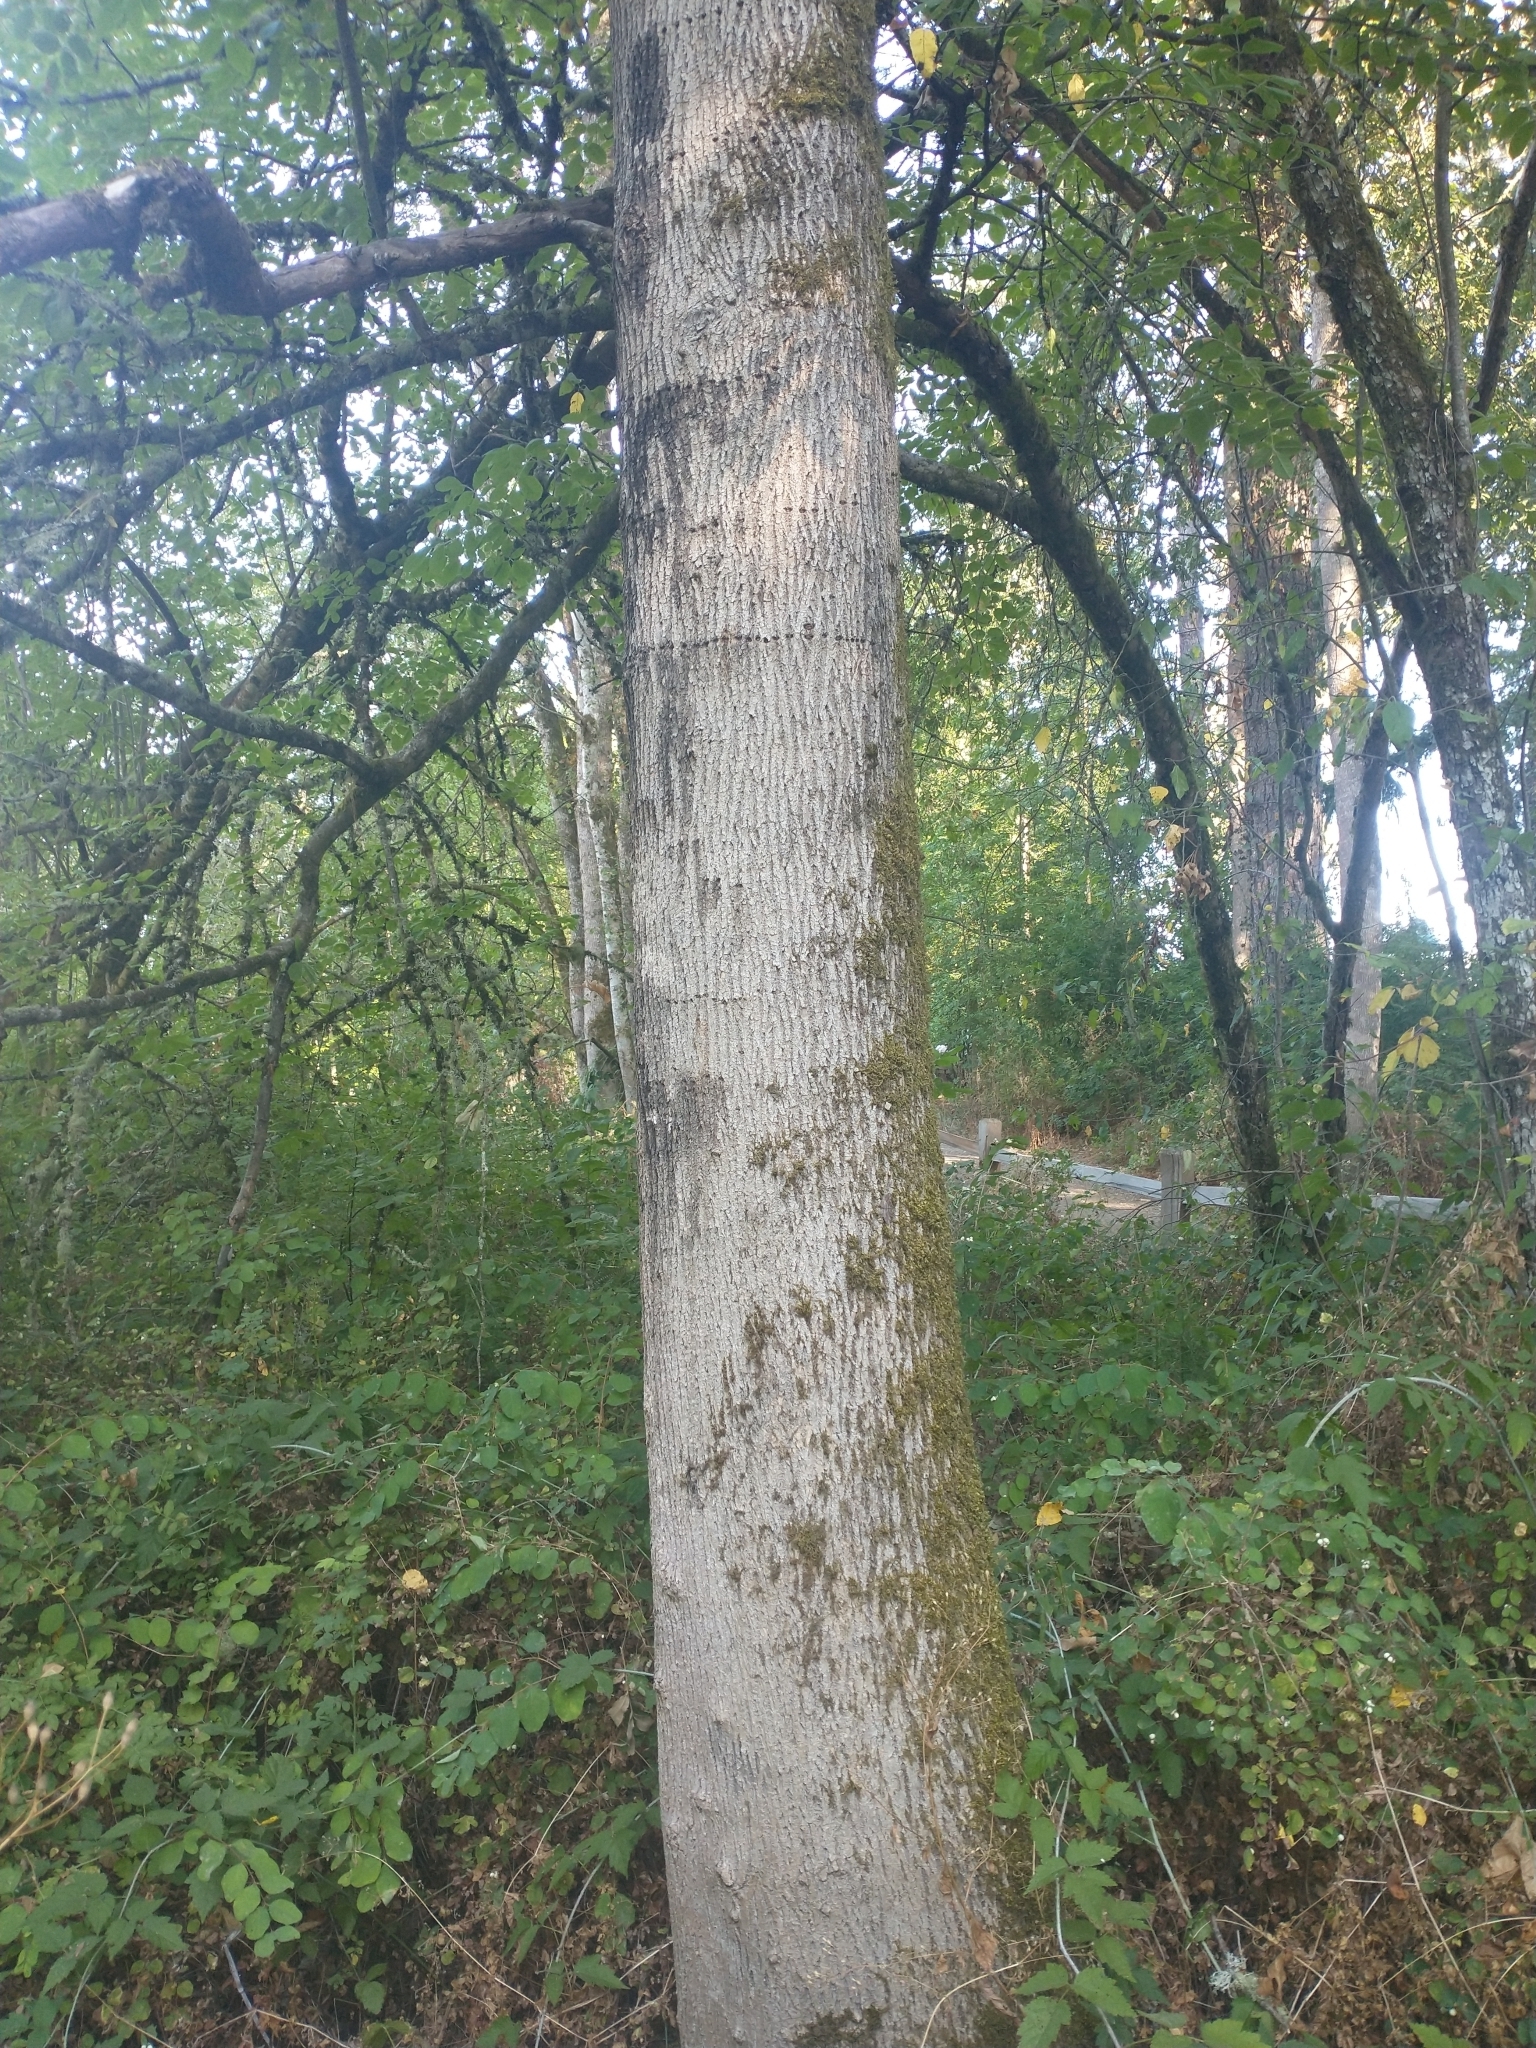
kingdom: Animalia
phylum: Chordata
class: Aves
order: Piciformes
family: Picidae
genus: Sphyrapicus
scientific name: Sphyrapicus ruber
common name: Red-breasted sapsucker
